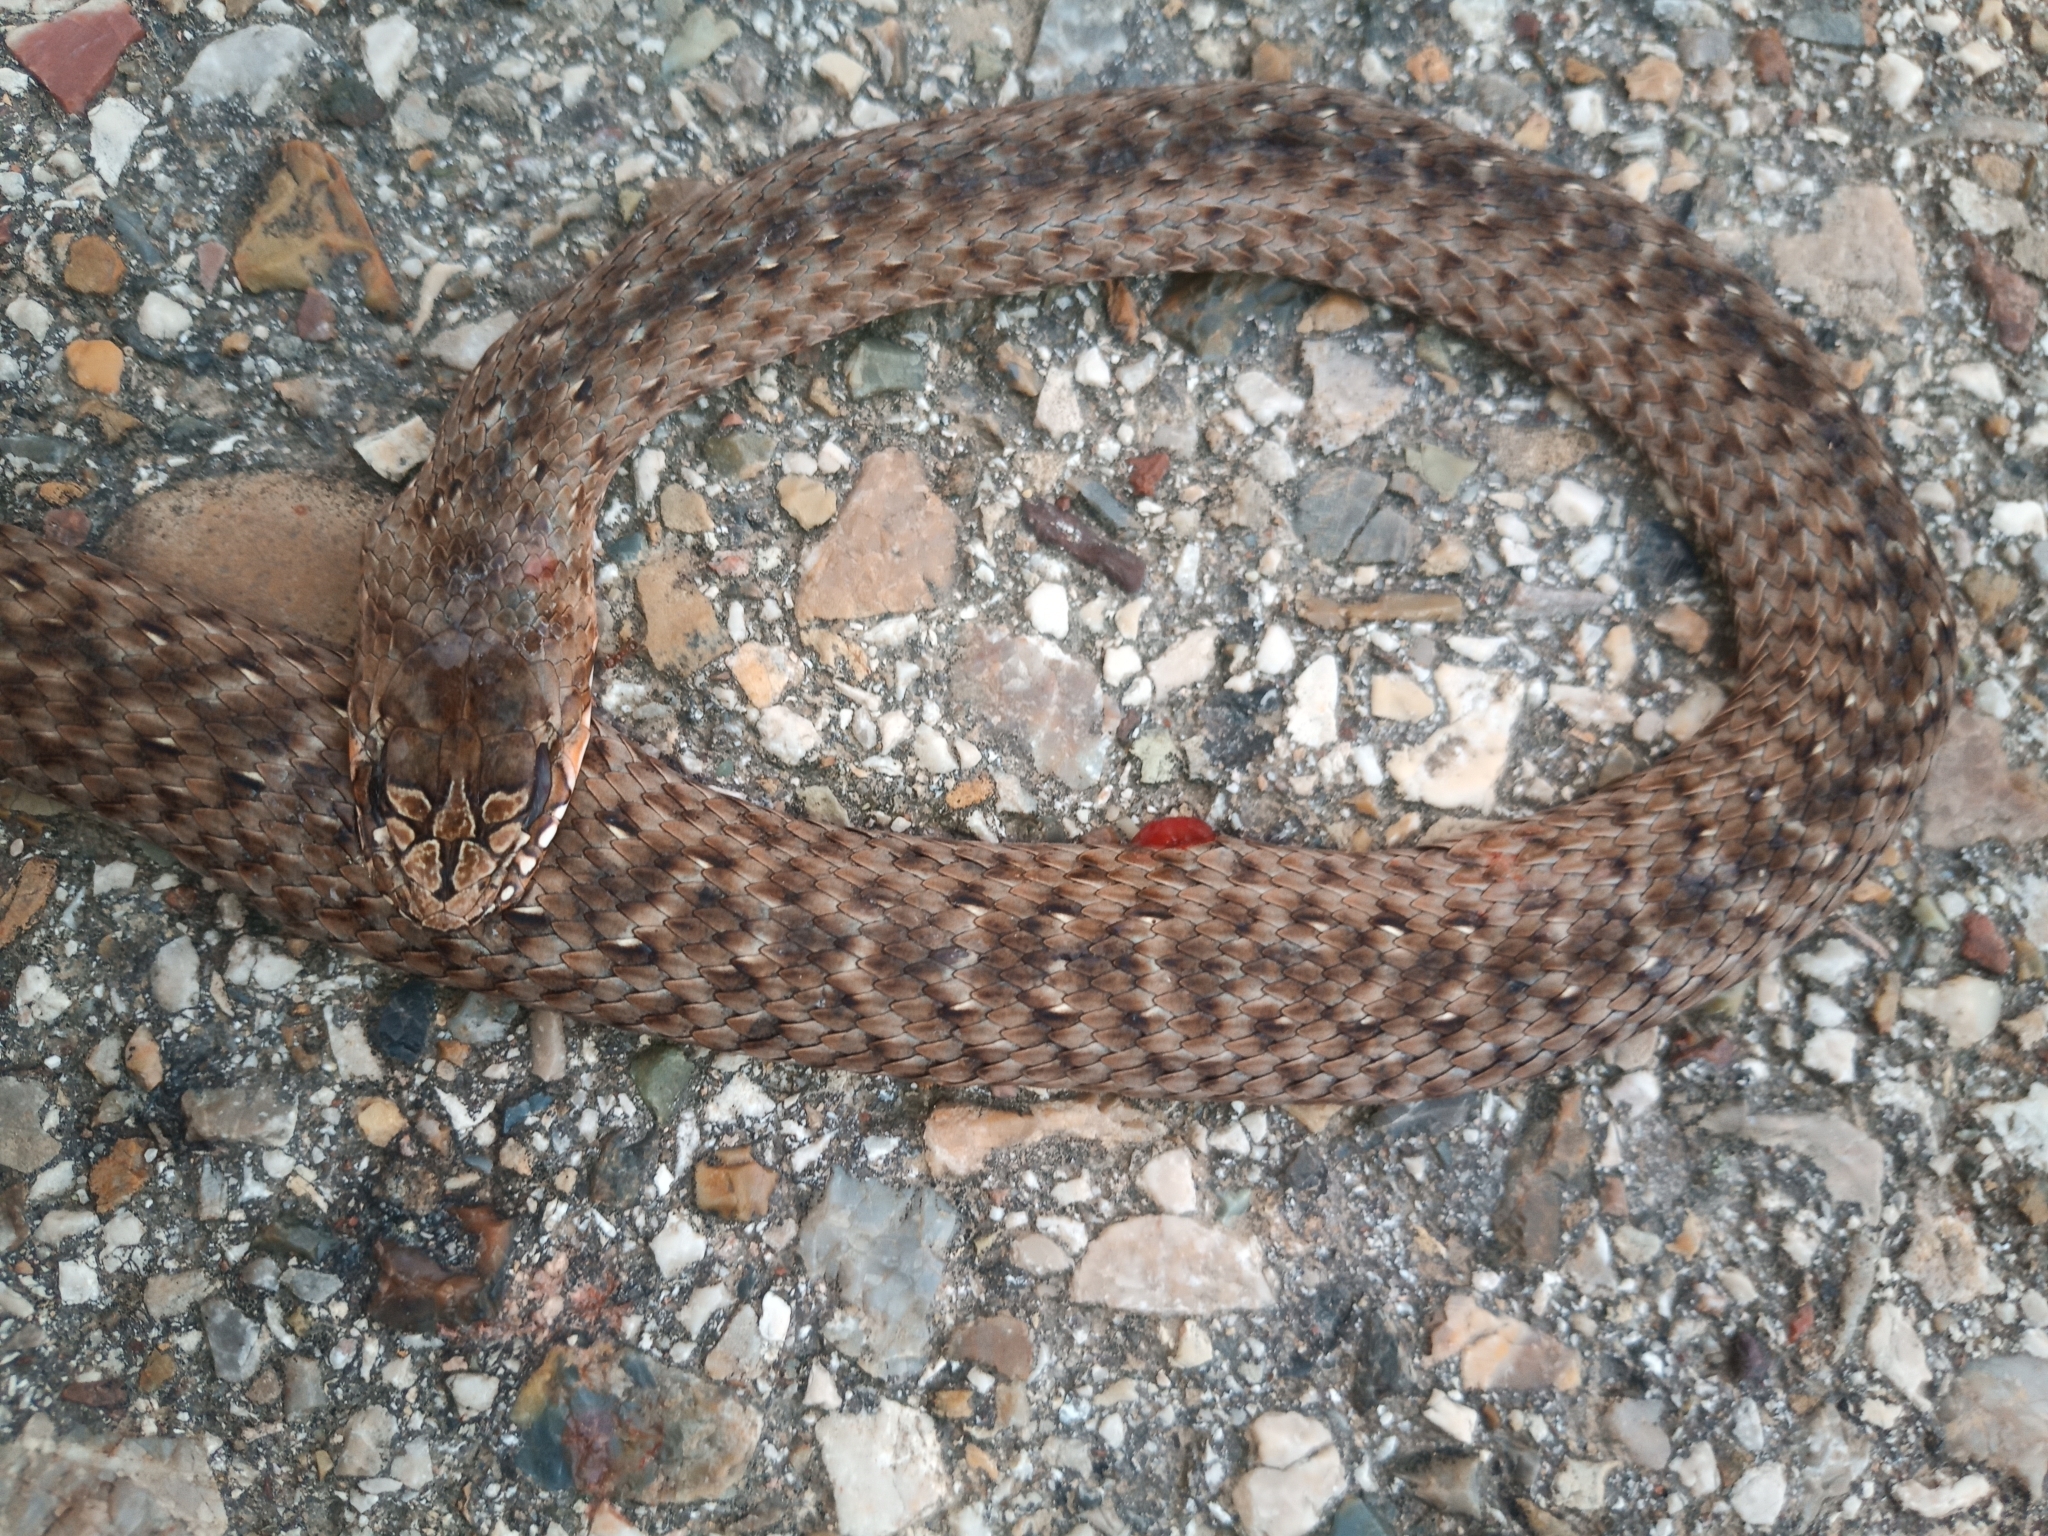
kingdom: Animalia
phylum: Chordata
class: Squamata
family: Psammophiidae
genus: Malpolon
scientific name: Malpolon insignitus
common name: Eastern montpellier snake
